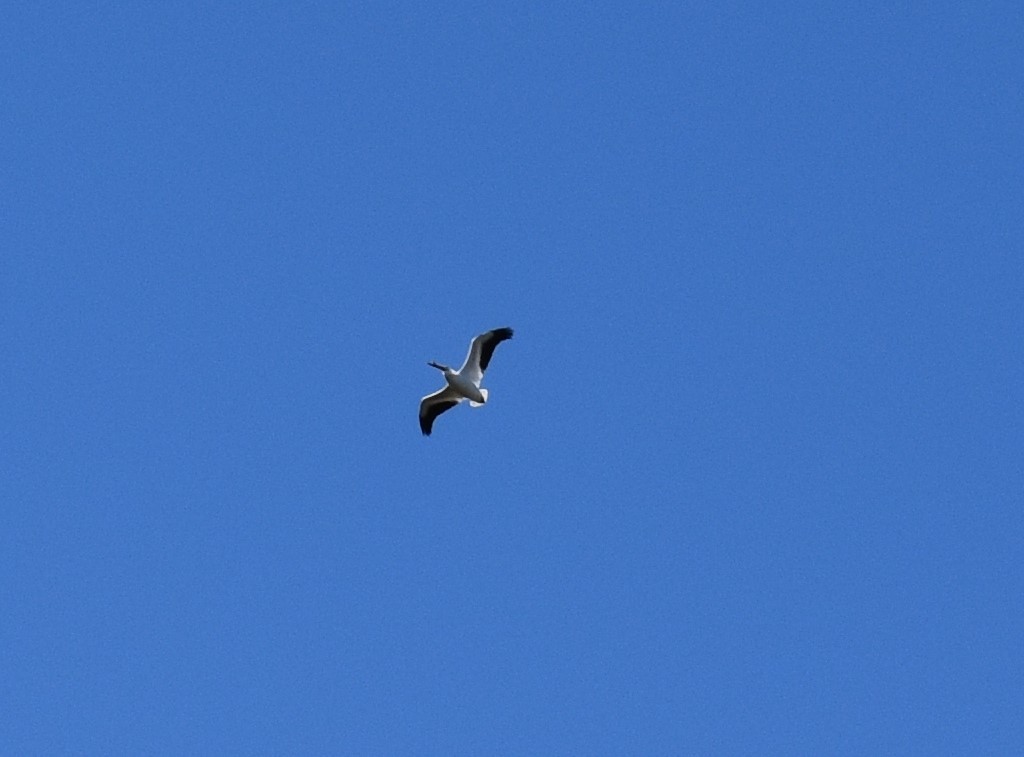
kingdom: Animalia
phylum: Chordata
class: Aves
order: Pelecaniformes
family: Pelecanidae
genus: Pelecanus
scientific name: Pelecanus erythrorhynchos
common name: American white pelican
